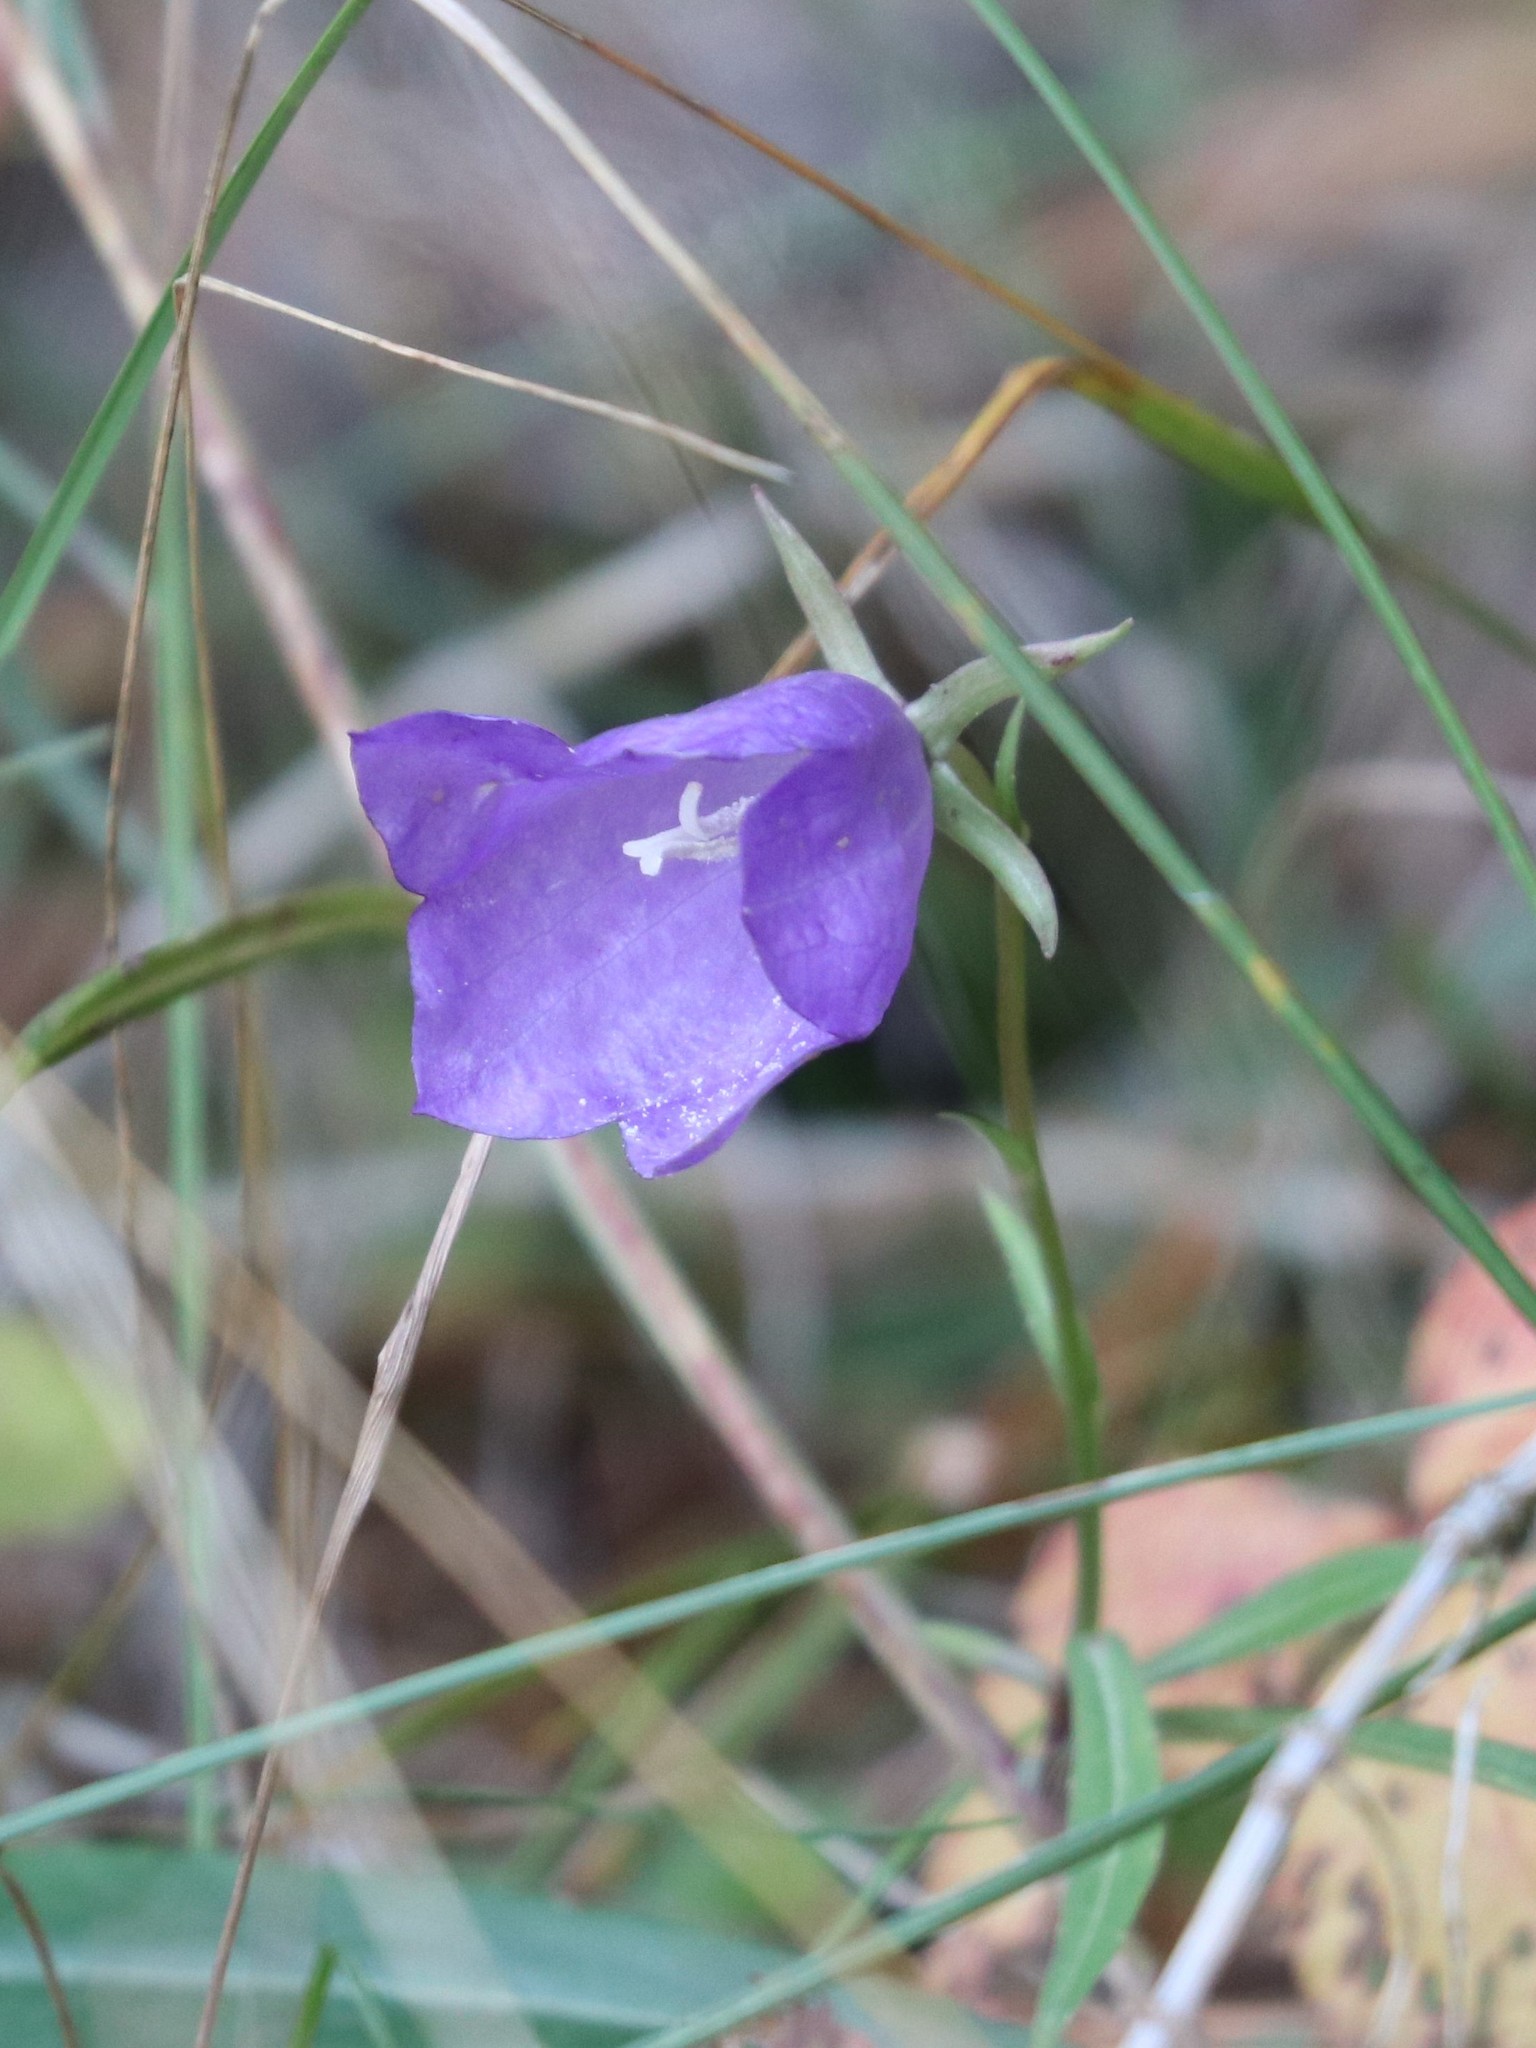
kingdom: Plantae
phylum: Tracheophyta
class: Magnoliopsida
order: Asterales
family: Campanulaceae
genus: Campanula
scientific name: Campanula persicifolia
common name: Peach-leaved bellflower
